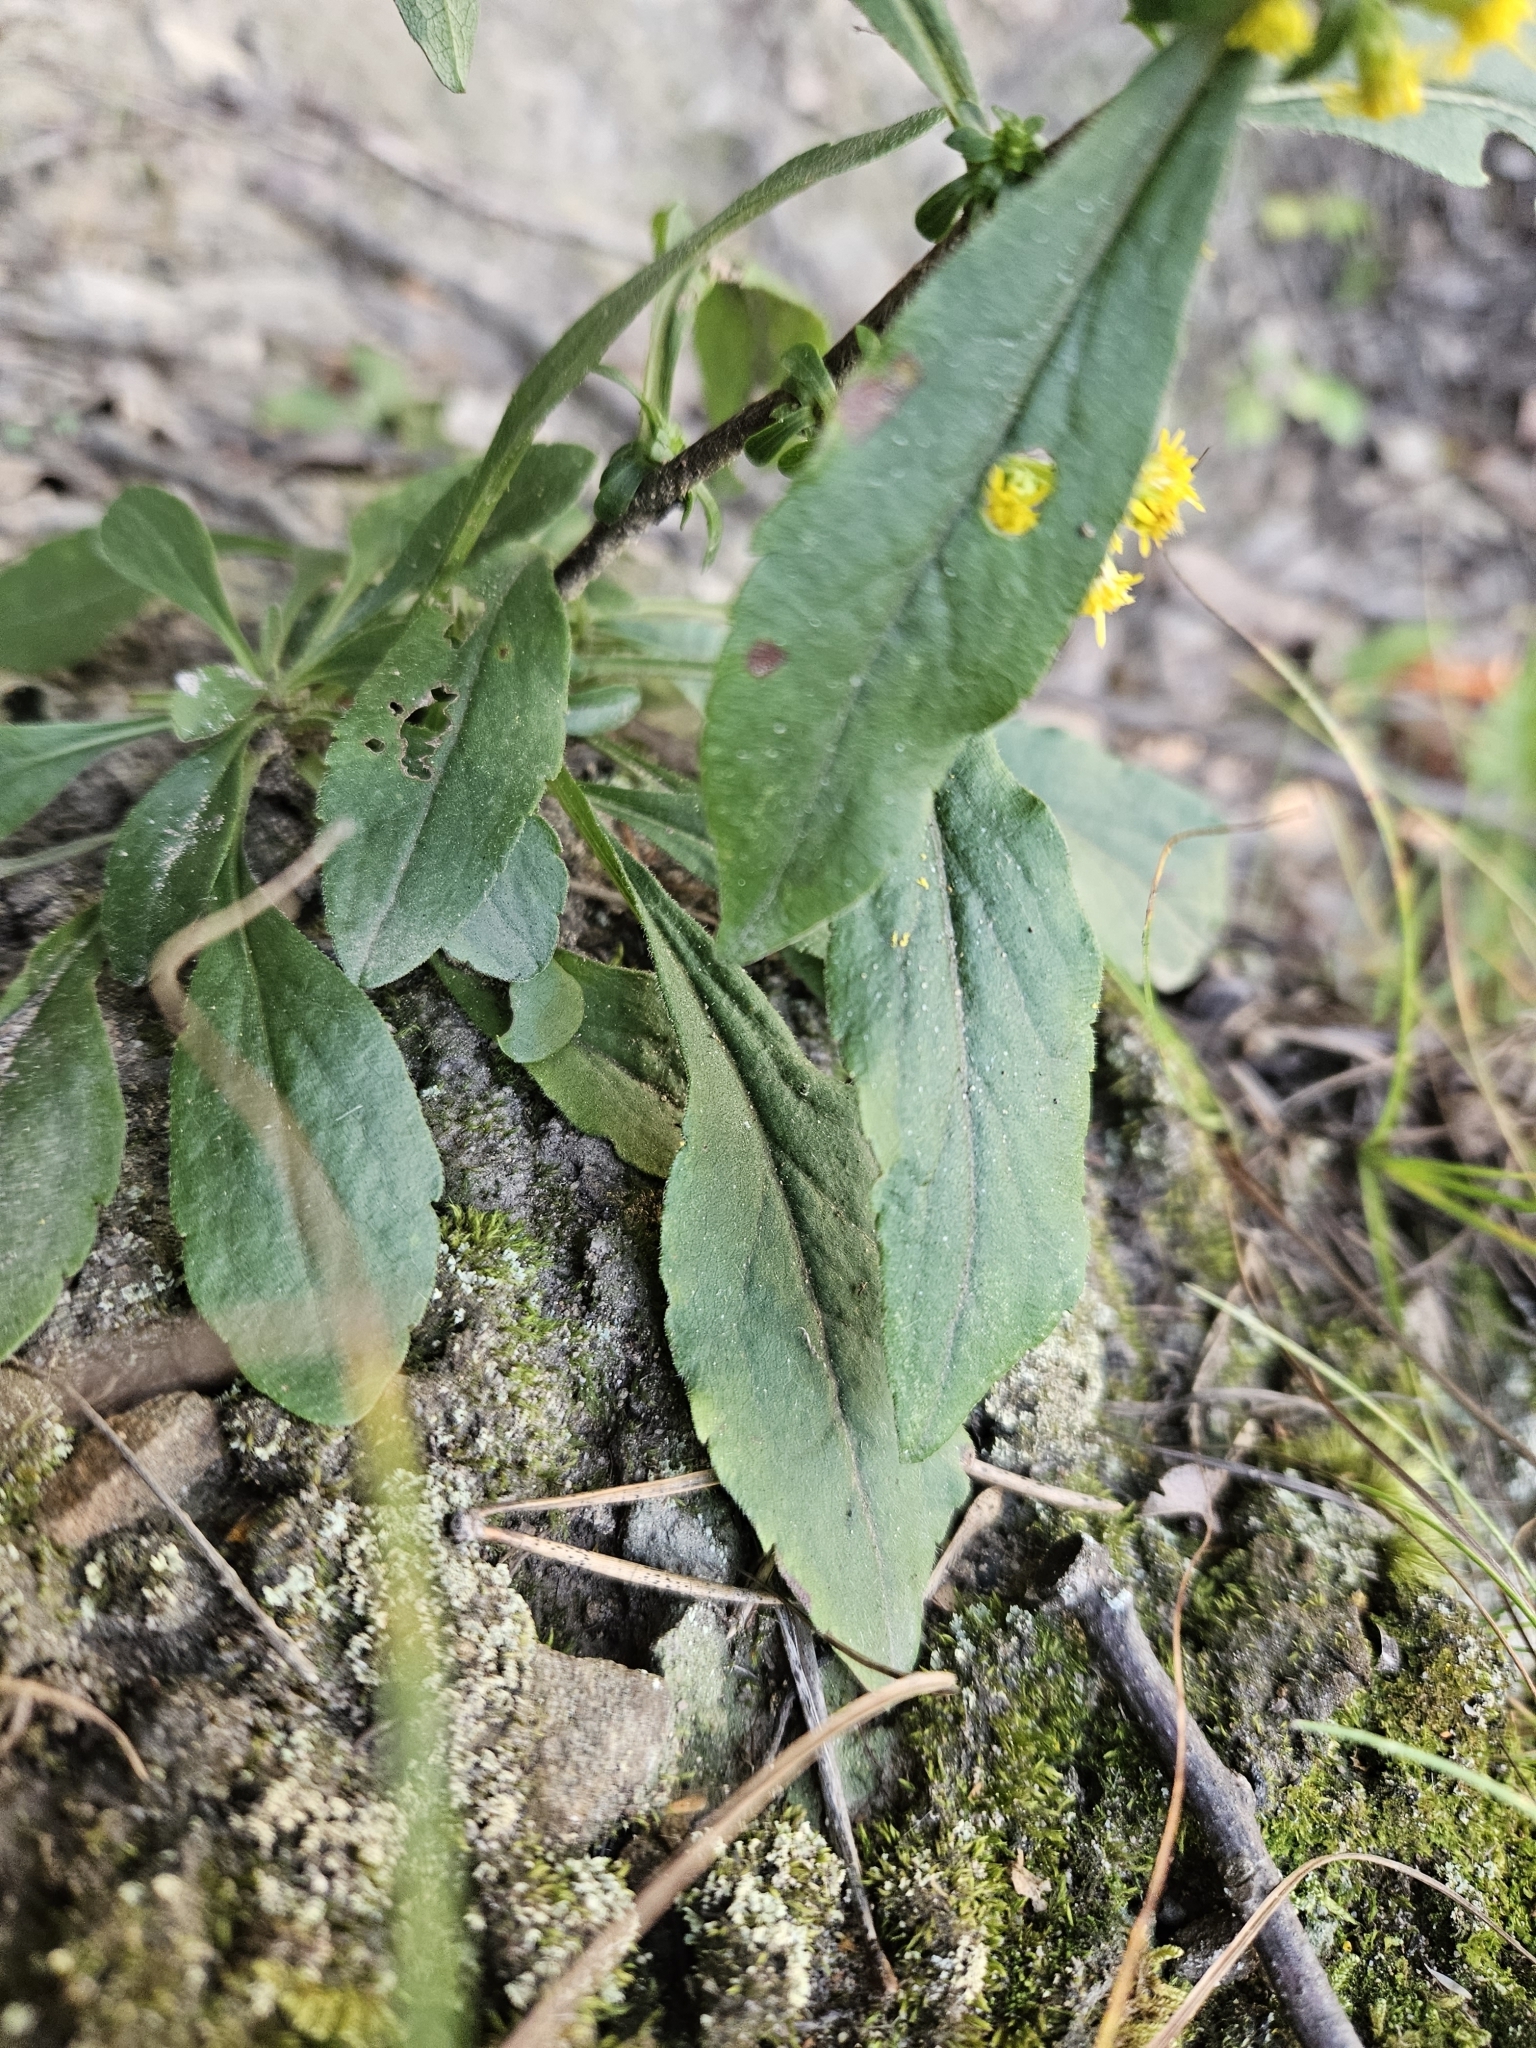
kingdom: Plantae
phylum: Tracheophyta
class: Magnoliopsida
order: Asterales
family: Asteraceae
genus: Solidago
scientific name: Solidago hispida
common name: Hairy goldenrod
